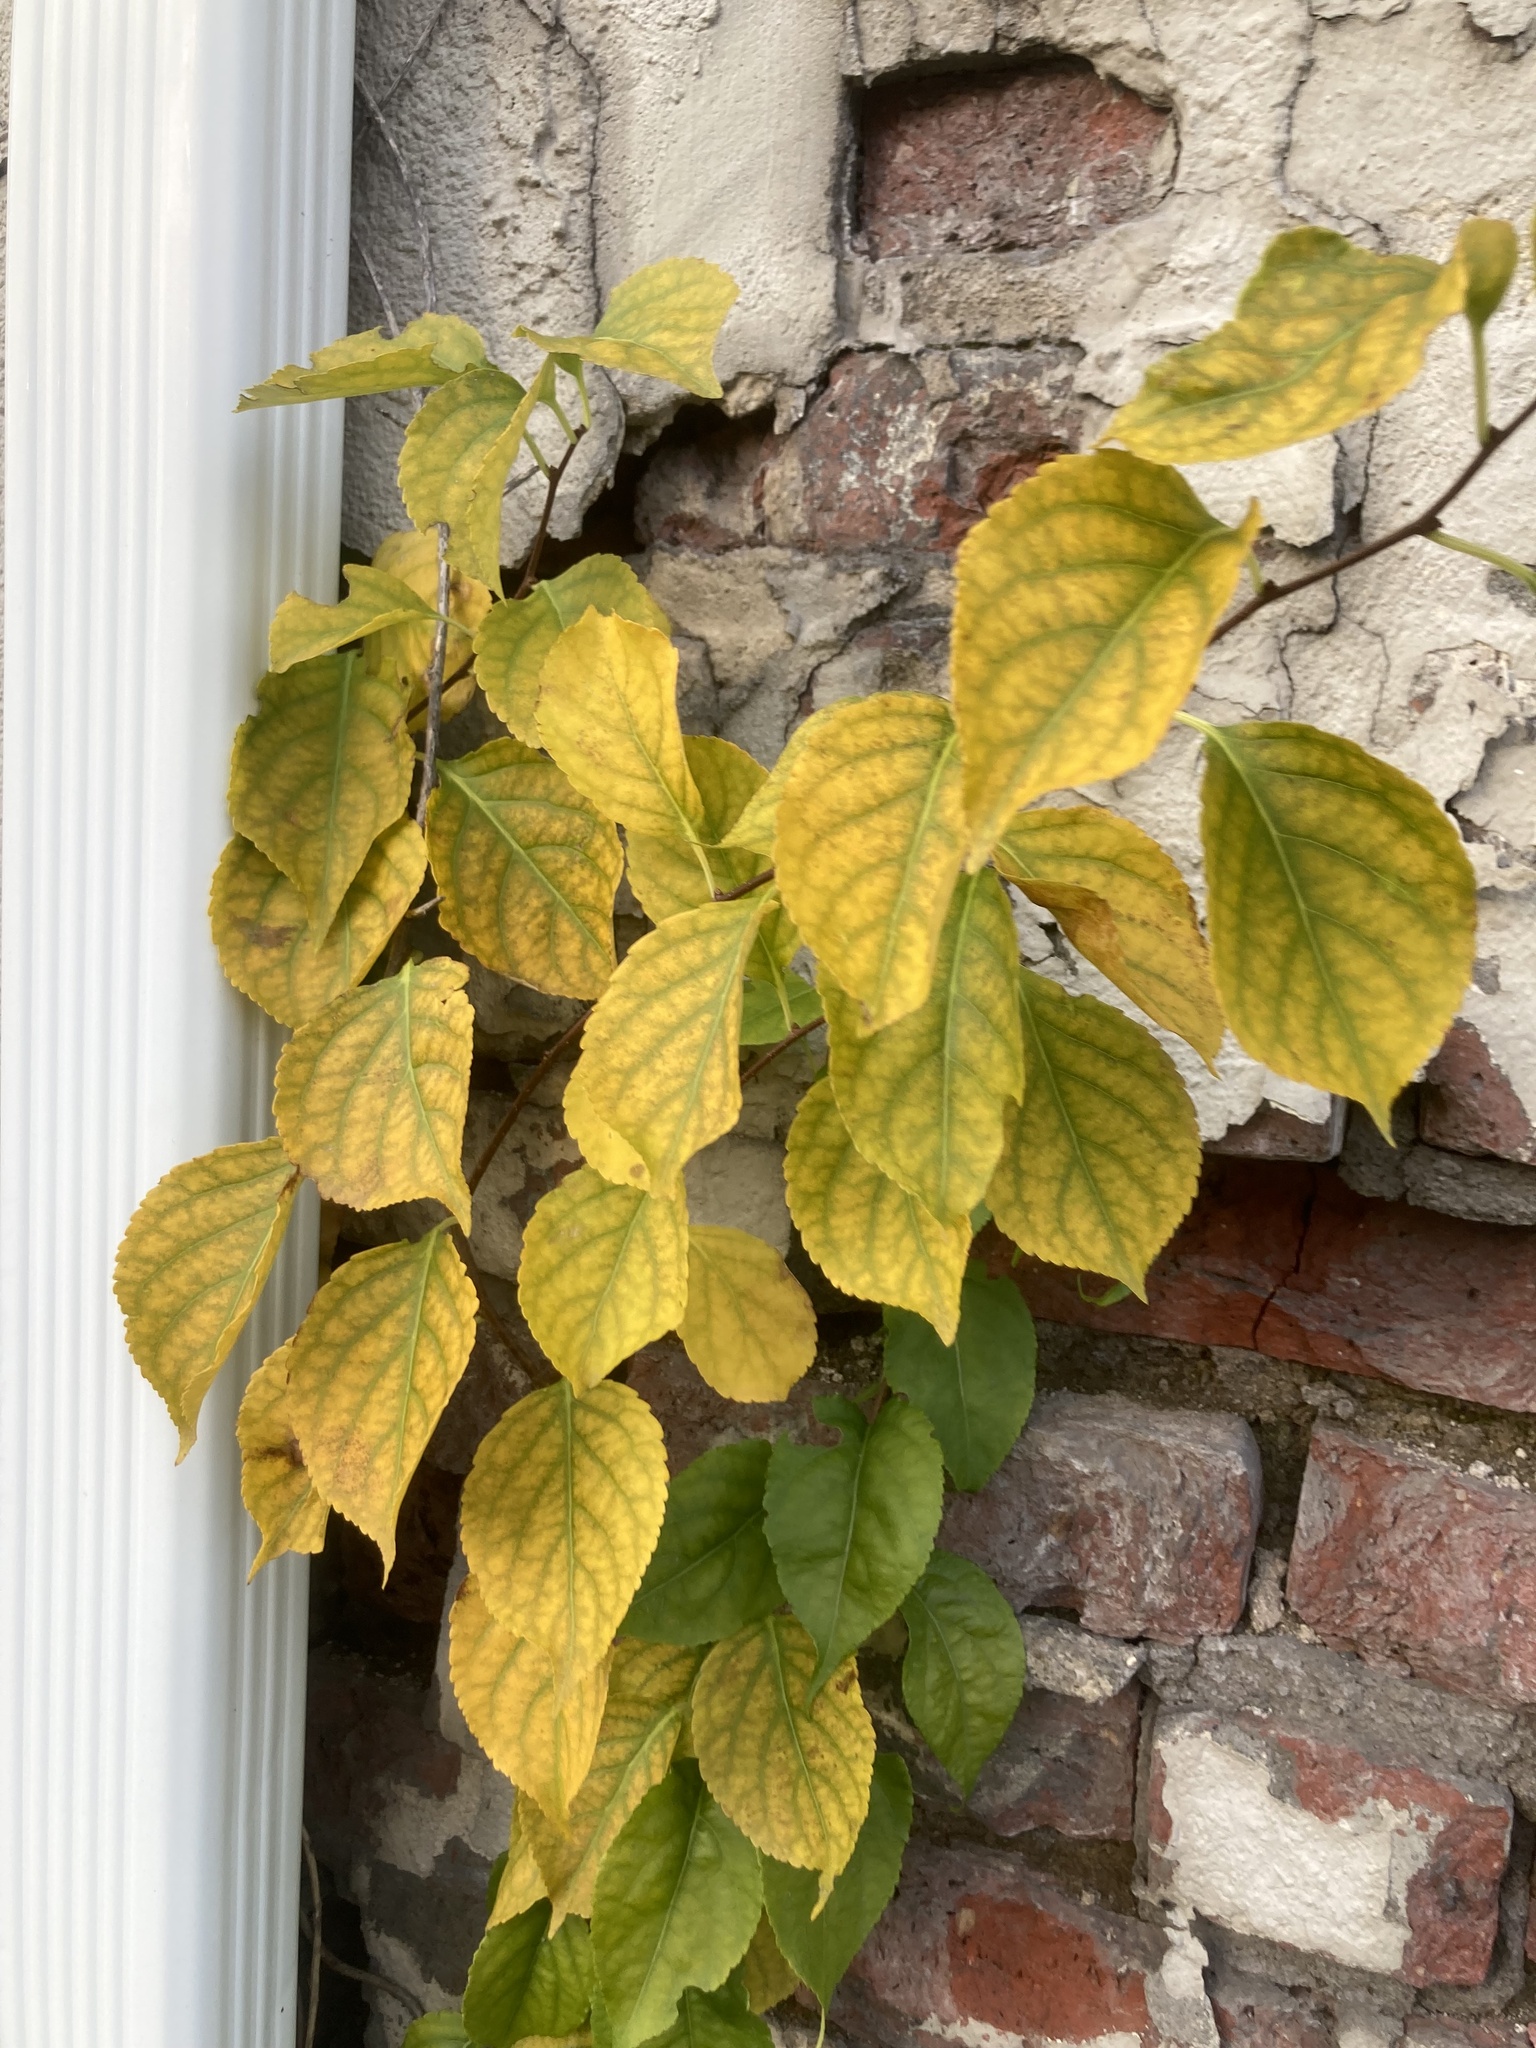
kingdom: Plantae
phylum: Tracheophyta
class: Magnoliopsida
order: Celastrales
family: Celastraceae
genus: Celastrus
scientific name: Celastrus orbiculatus
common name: Oriental bittersweet
